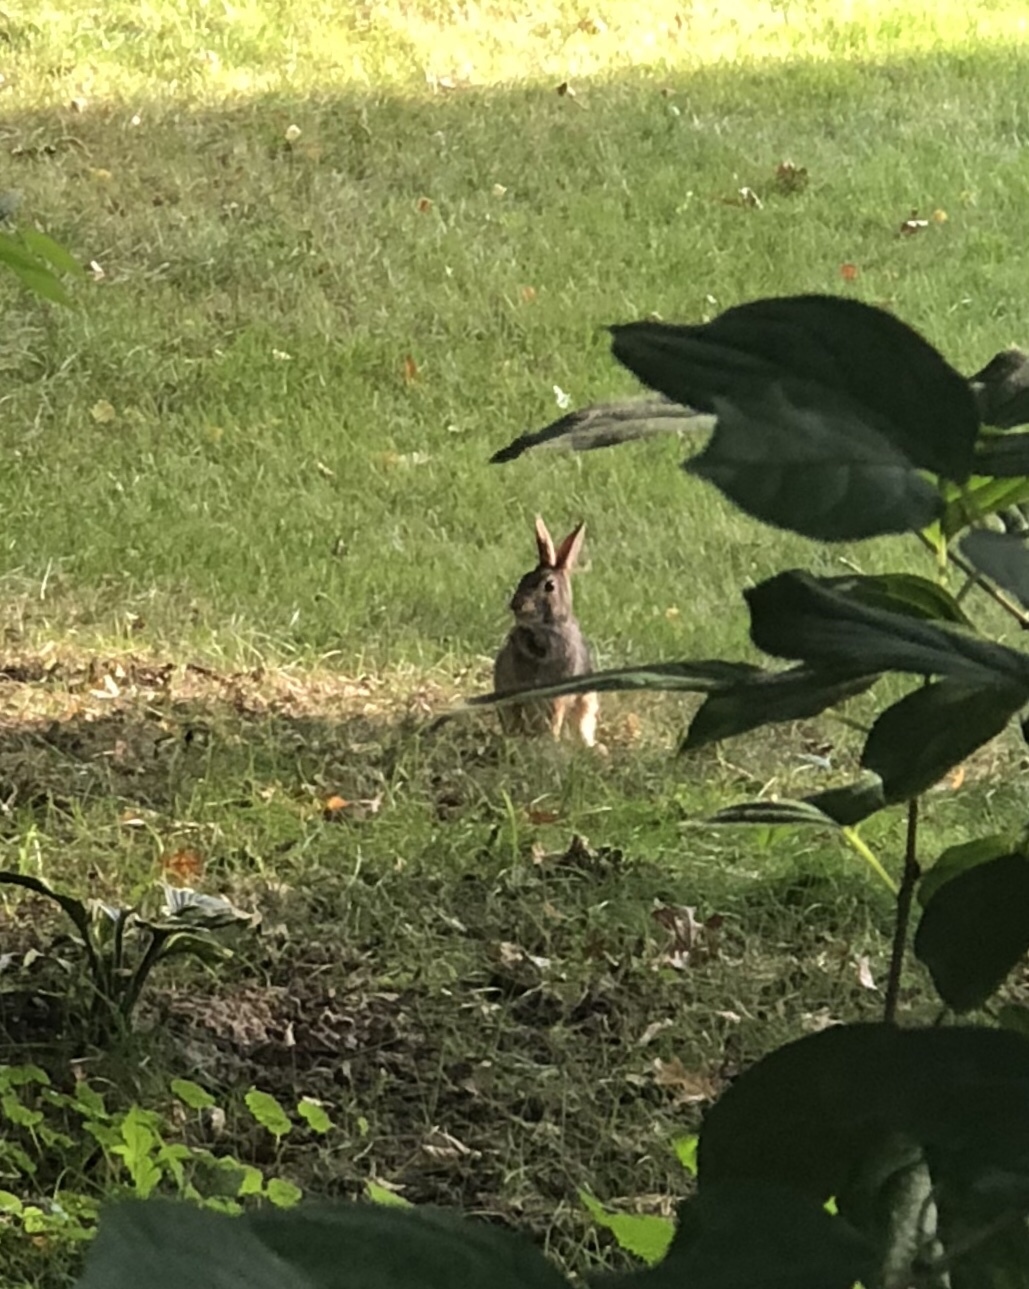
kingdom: Animalia
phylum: Chordata
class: Mammalia
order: Lagomorpha
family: Leporidae
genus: Sylvilagus
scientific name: Sylvilagus floridanus
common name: Eastern cottontail
